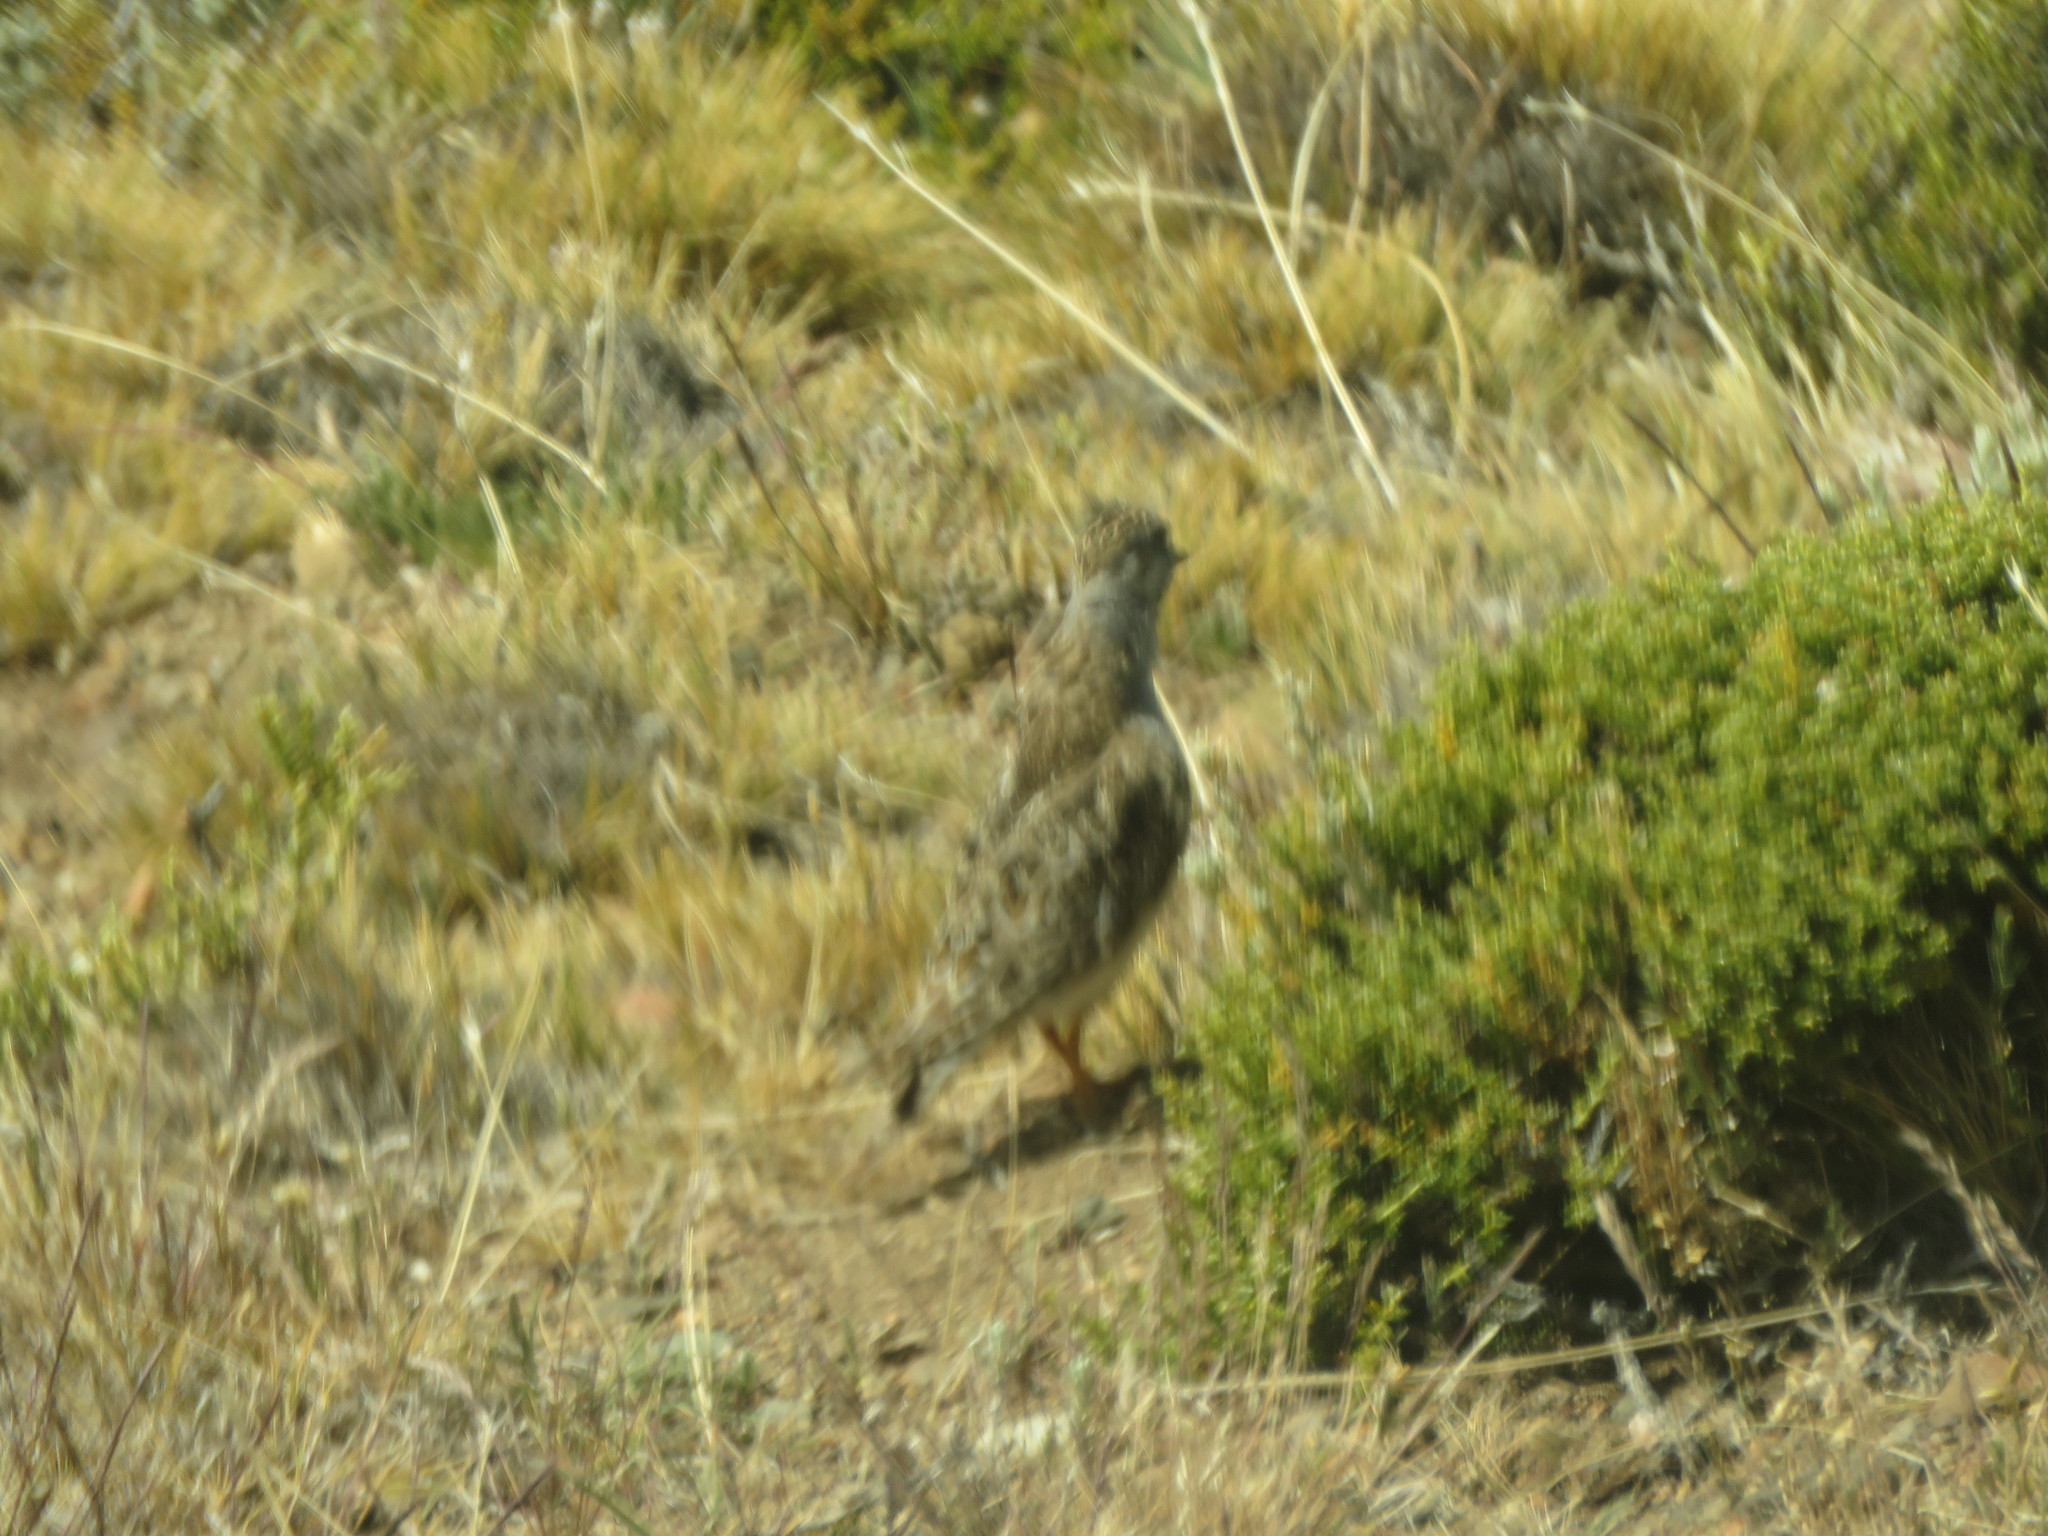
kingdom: Animalia
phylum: Chordata
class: Aves
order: Charadriiformes
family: Thinocoridae
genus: Thinocorus
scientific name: Thinocorus rumicivorus
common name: Least seedsnipe
